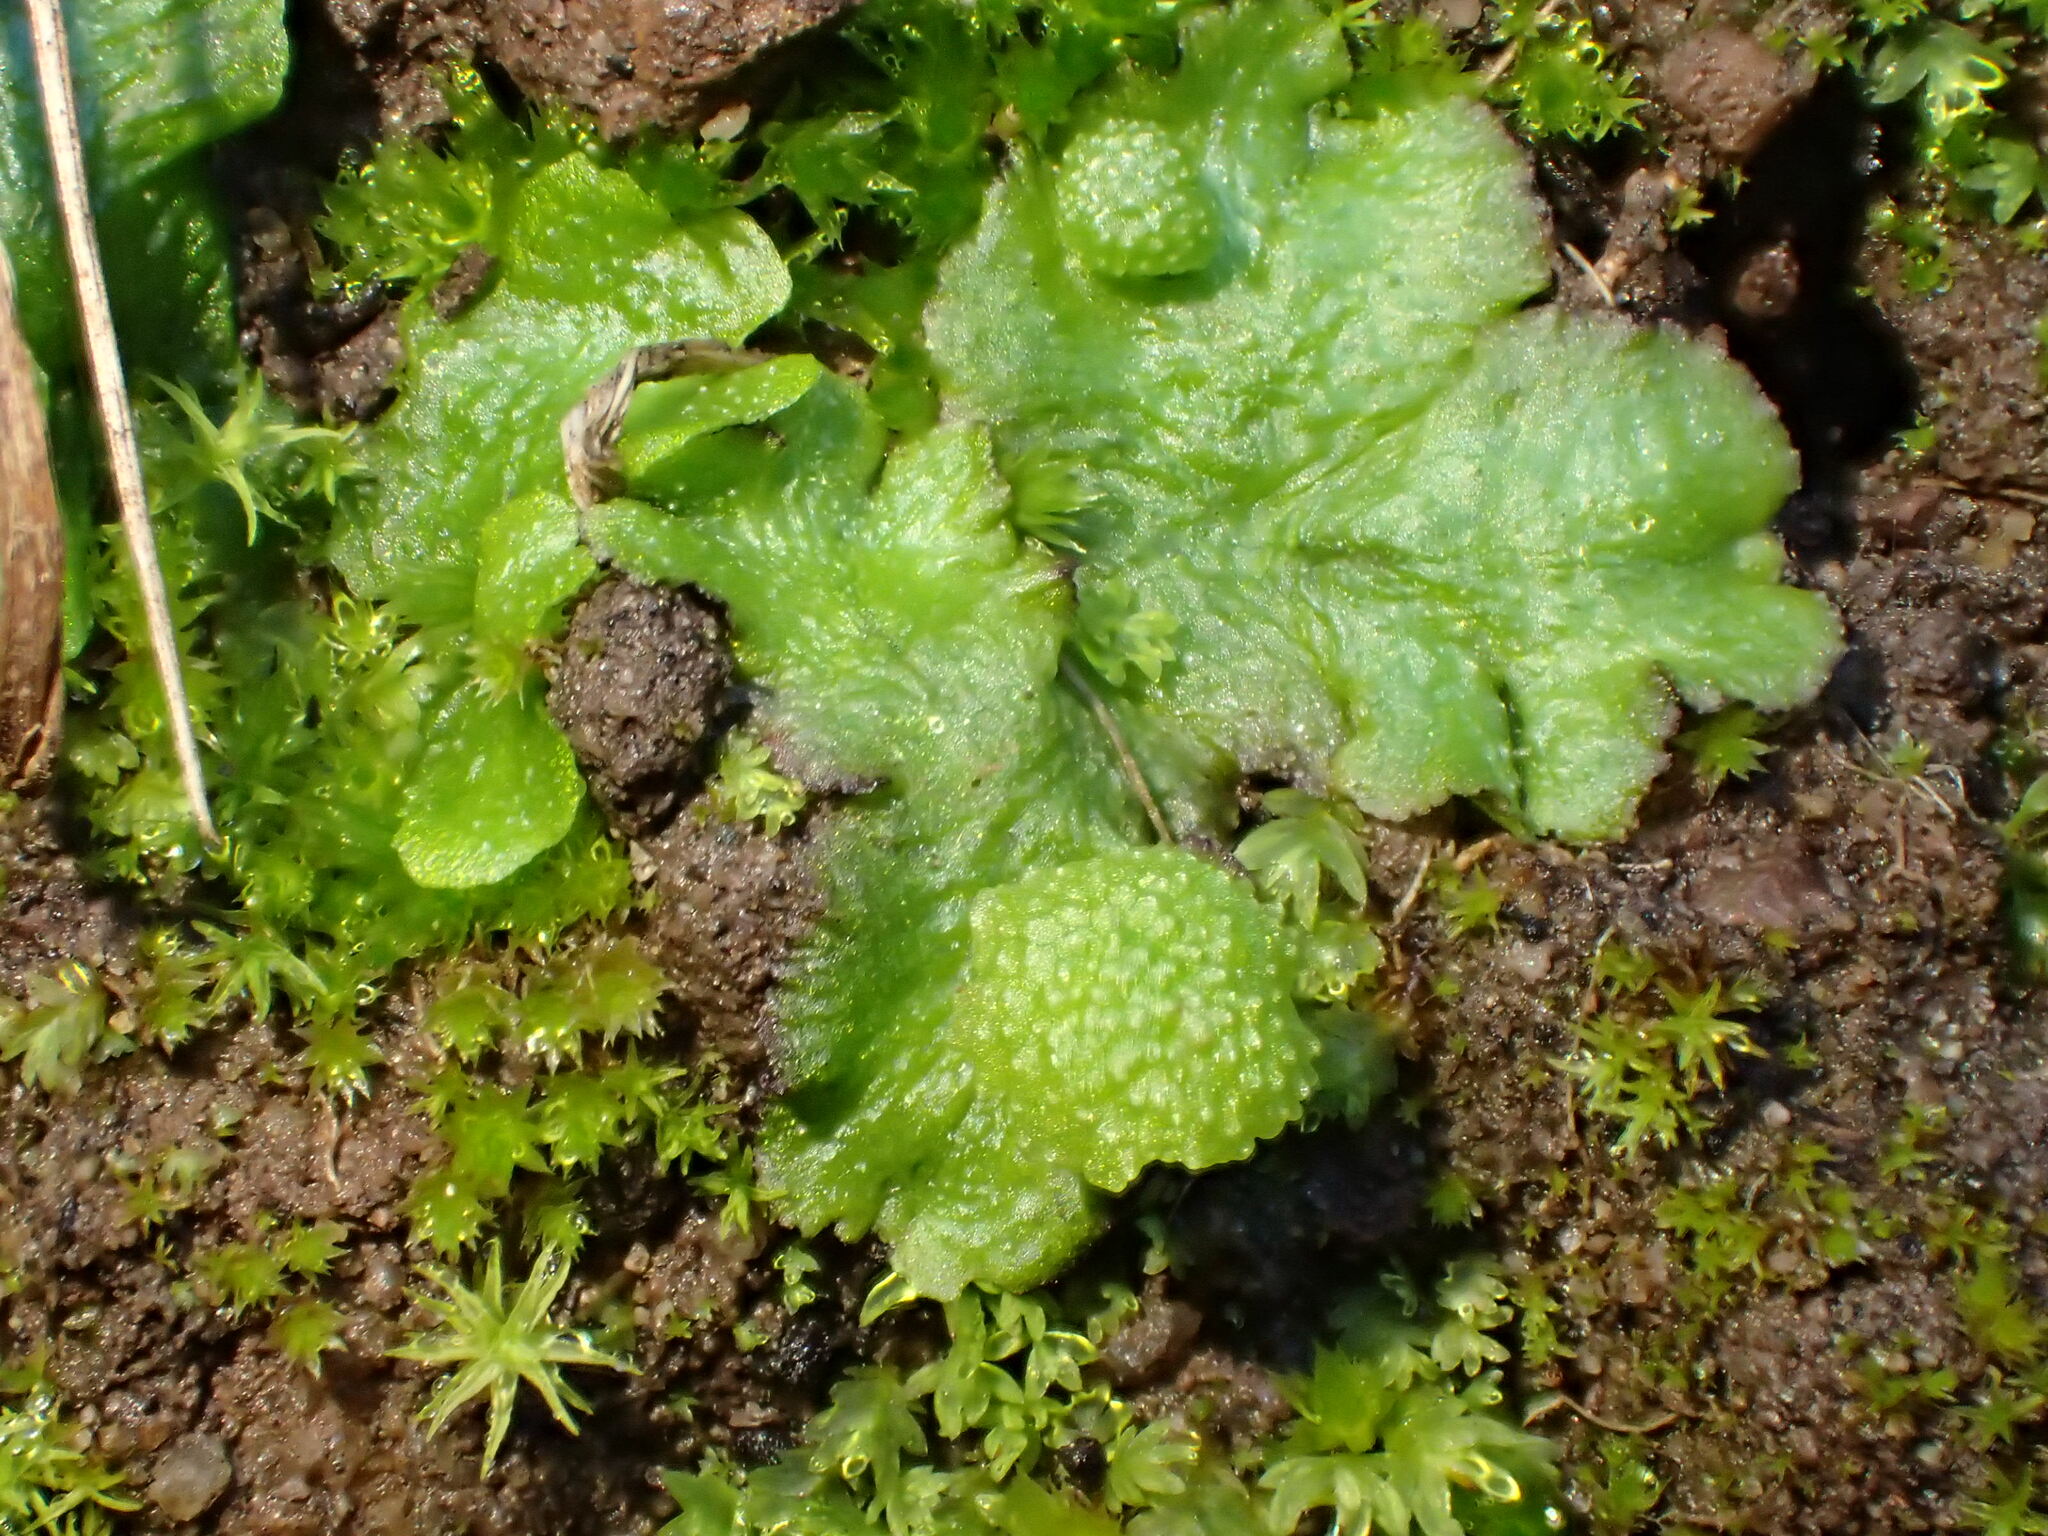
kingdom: Plantae
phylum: Marchantiophyta
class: Marchantiopsida
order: Marchantiales
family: Aytoniaceae
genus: Cryptomitrium
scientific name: Cryptomitrium tenerum
